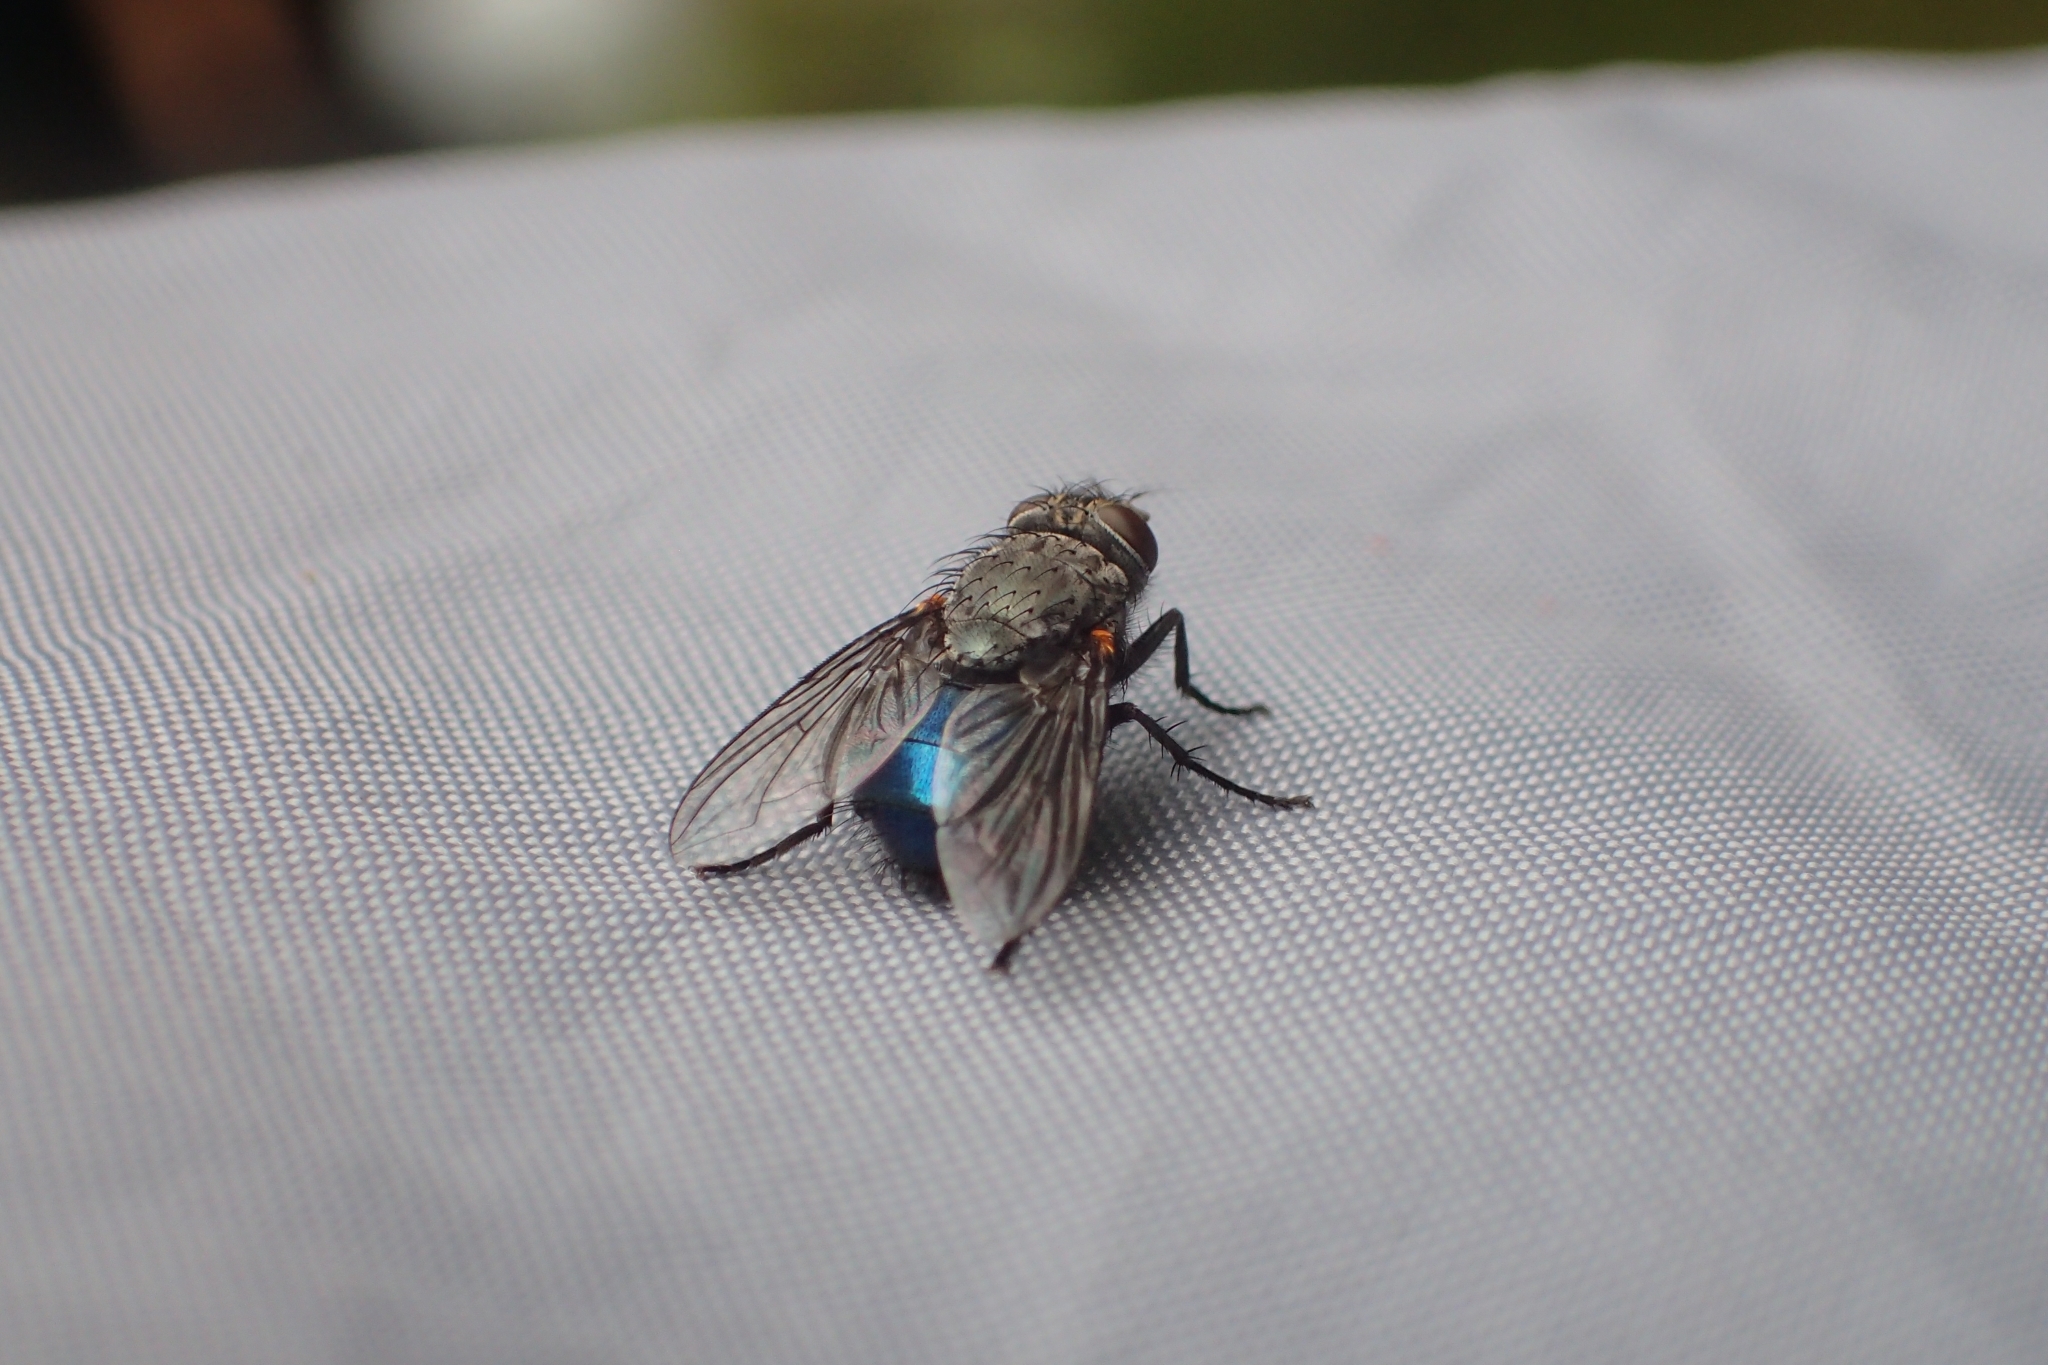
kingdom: Animalia
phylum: Arthropoda
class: Insecta
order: Diptera
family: Calliphoridae
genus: Calliphora
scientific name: Calliphora quadrimaculata
